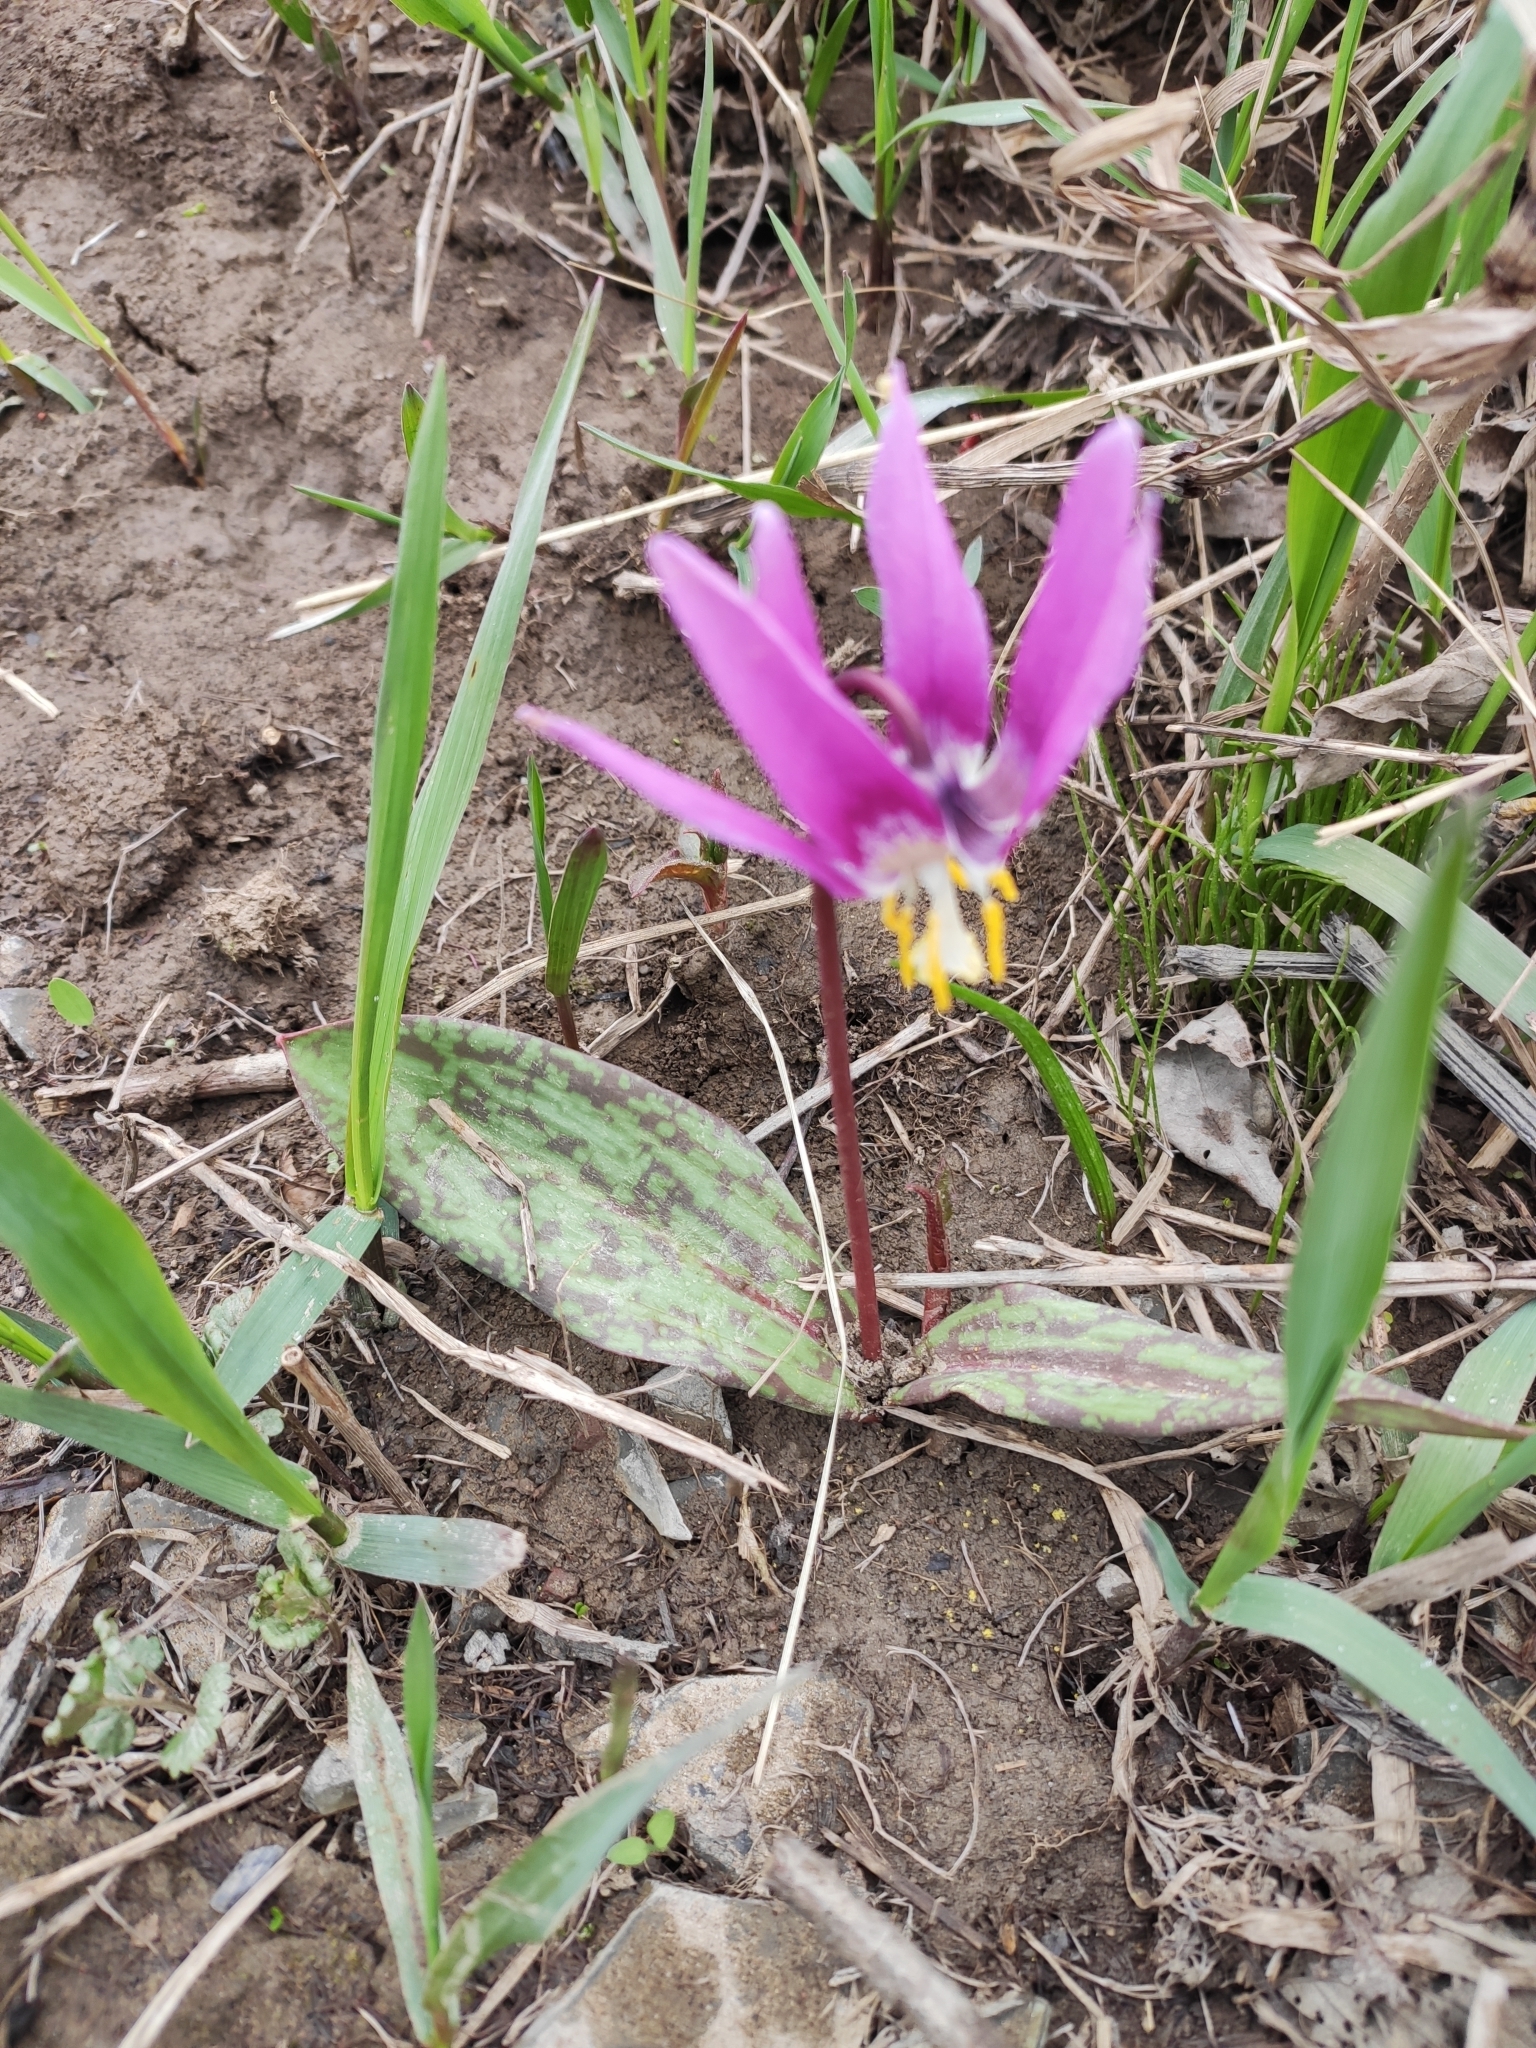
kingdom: Plantae
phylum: Tracheophyta
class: Liliopsida
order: Liliales
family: Liliaceae
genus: Erythronium
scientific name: Erythronium sibiricum
